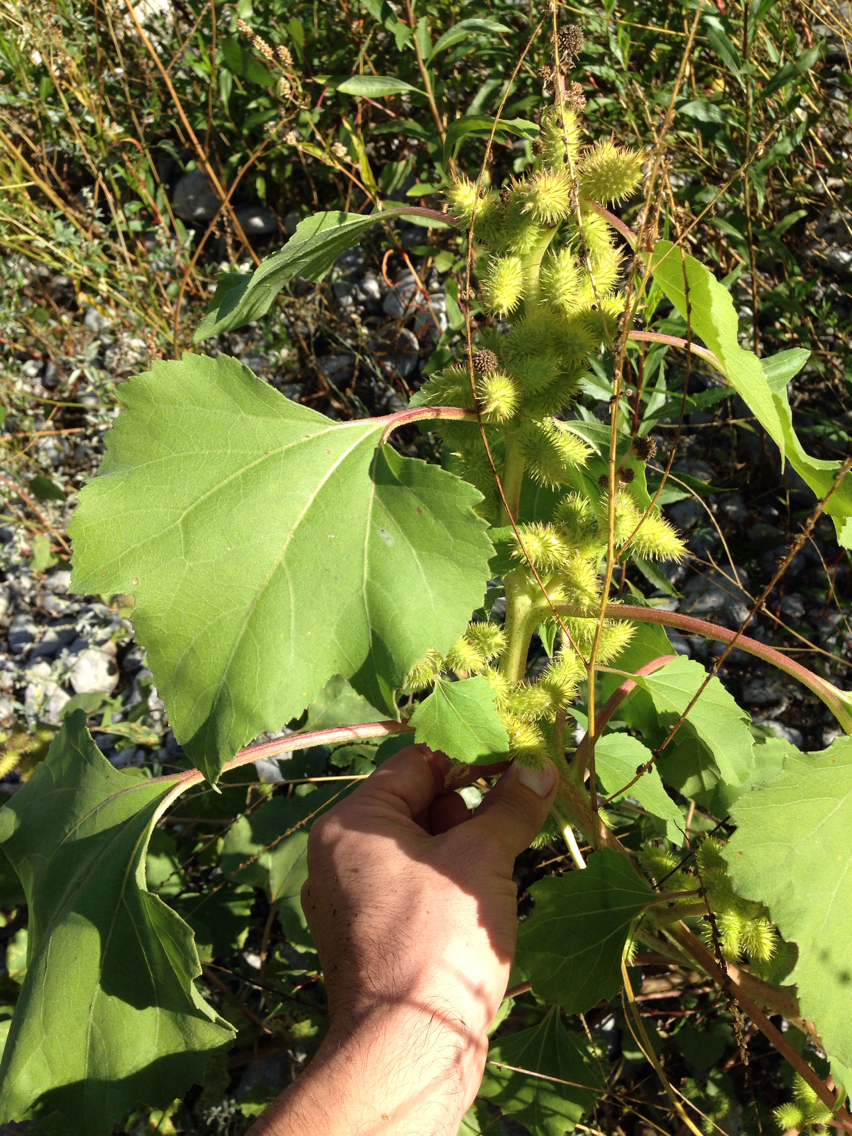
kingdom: Plantae
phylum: Tracheophyta
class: Magnoliopsida
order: Asterales
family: Asteraceae
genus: Xanthium
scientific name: Xanthium strumarium
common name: Rough cocklebur
